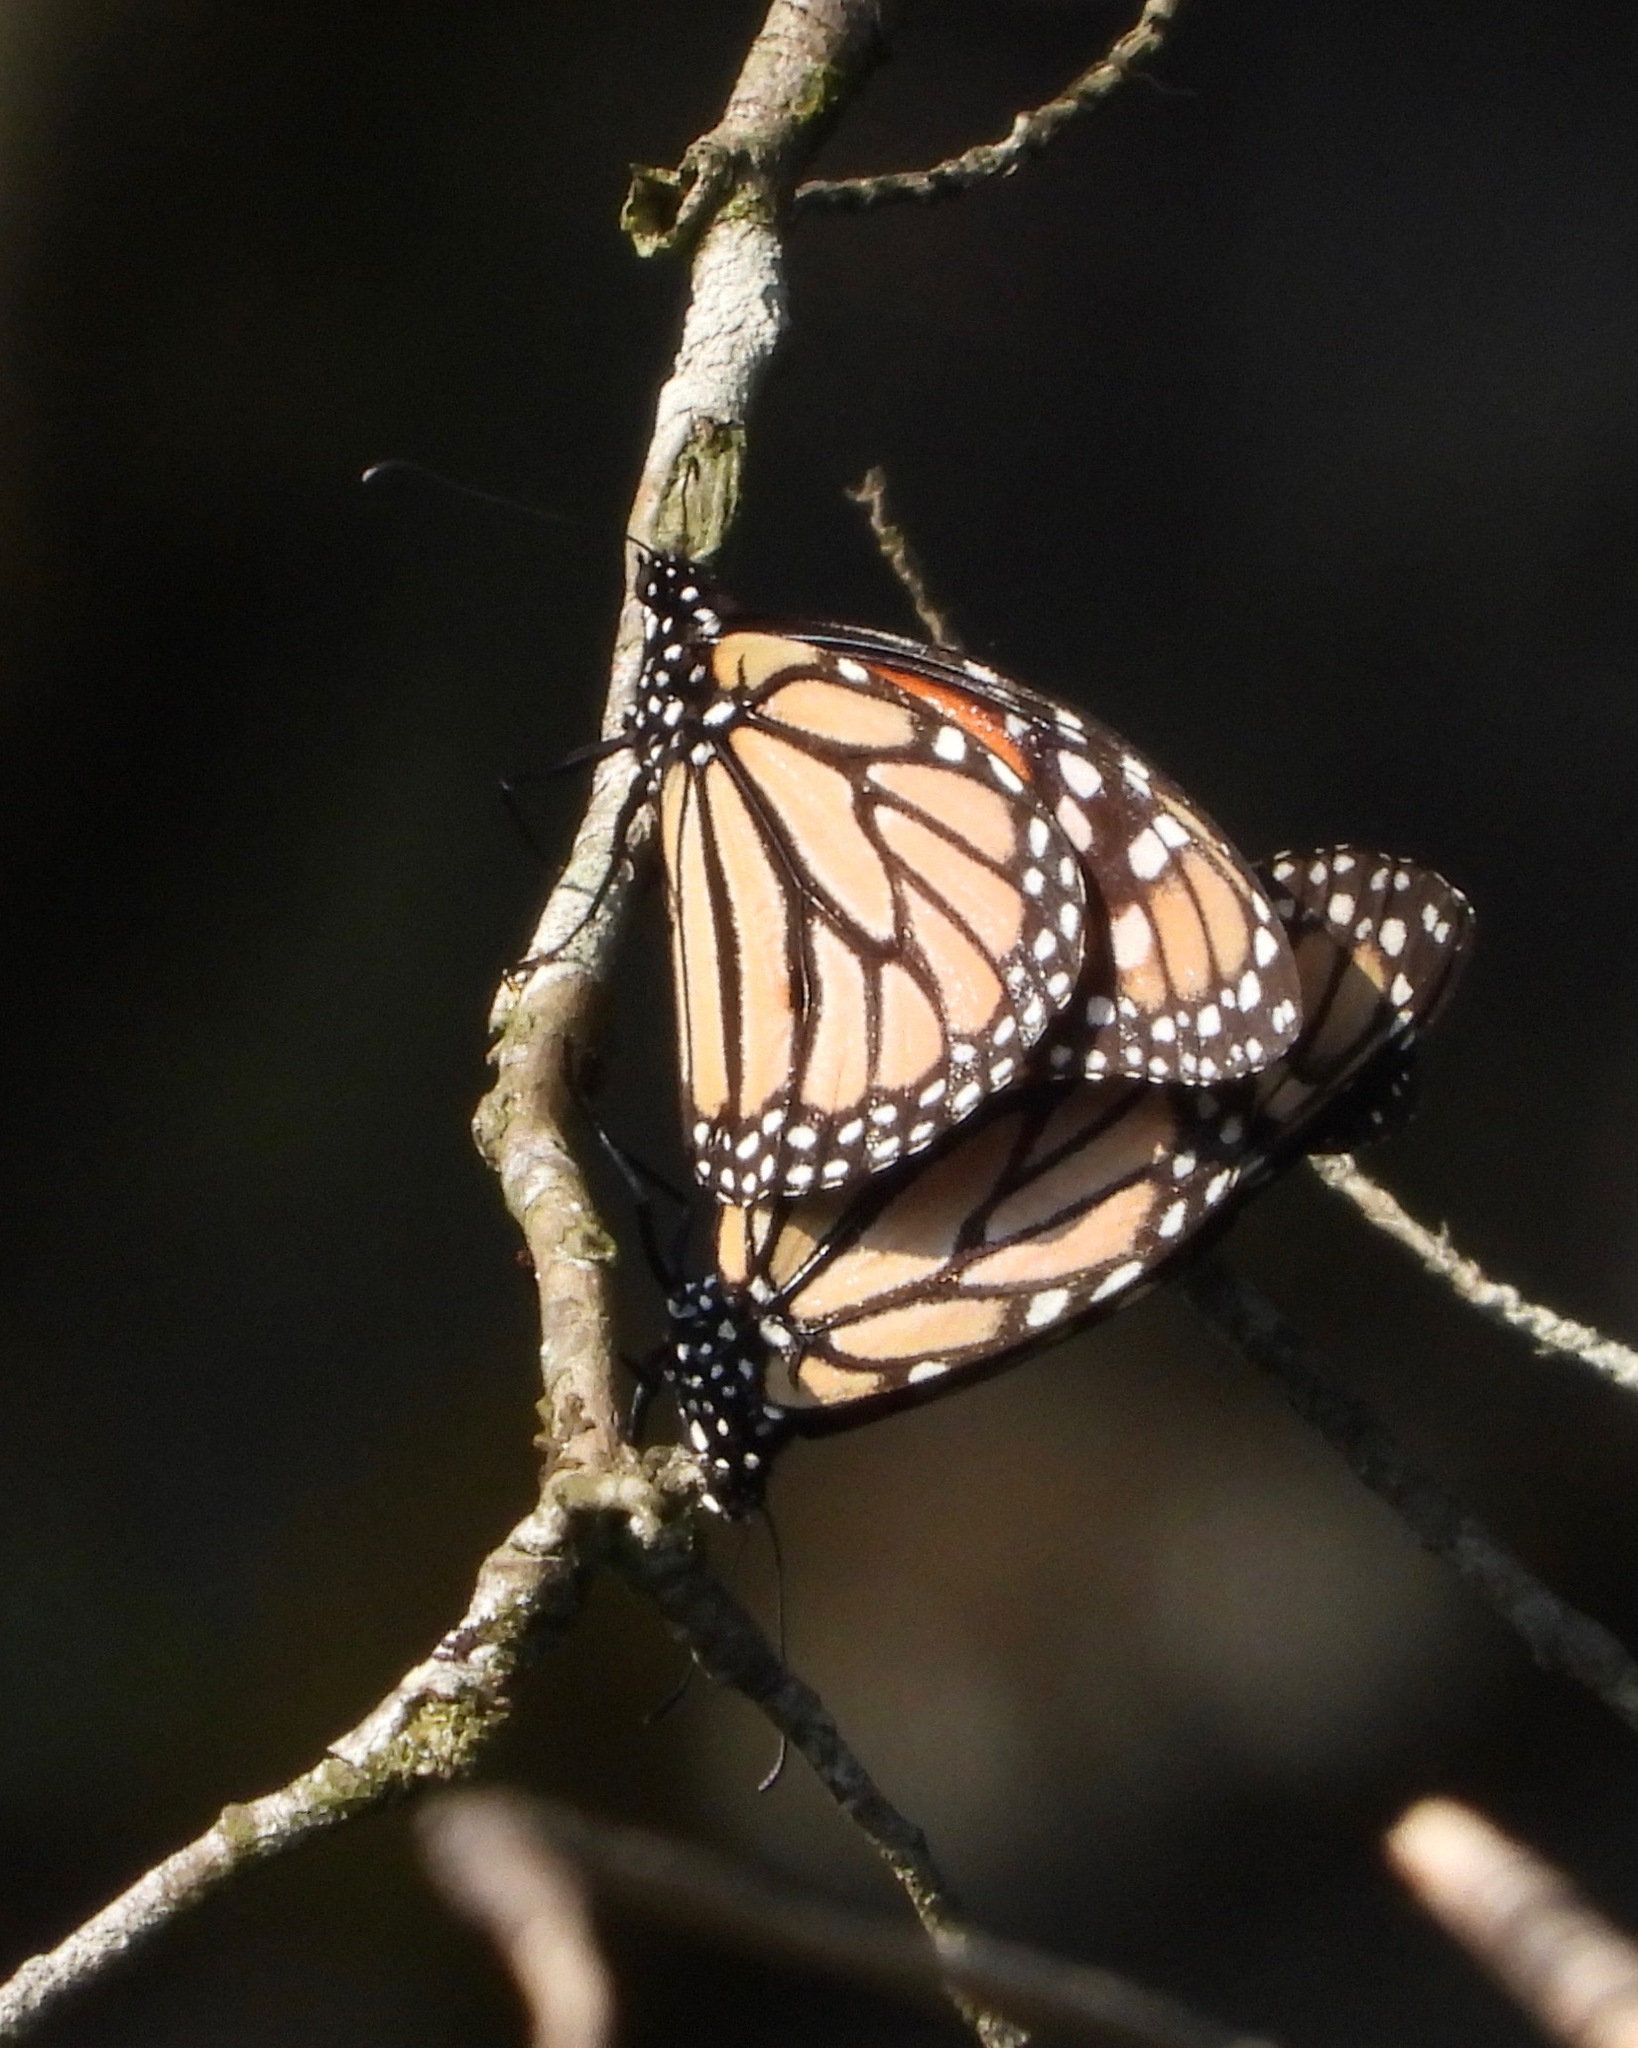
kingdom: Animalia
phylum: Arthropoda
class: Insecta
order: Lepidoptera
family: Nymphalidae
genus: Danaus
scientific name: Danaus plexippus
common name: Monarch
